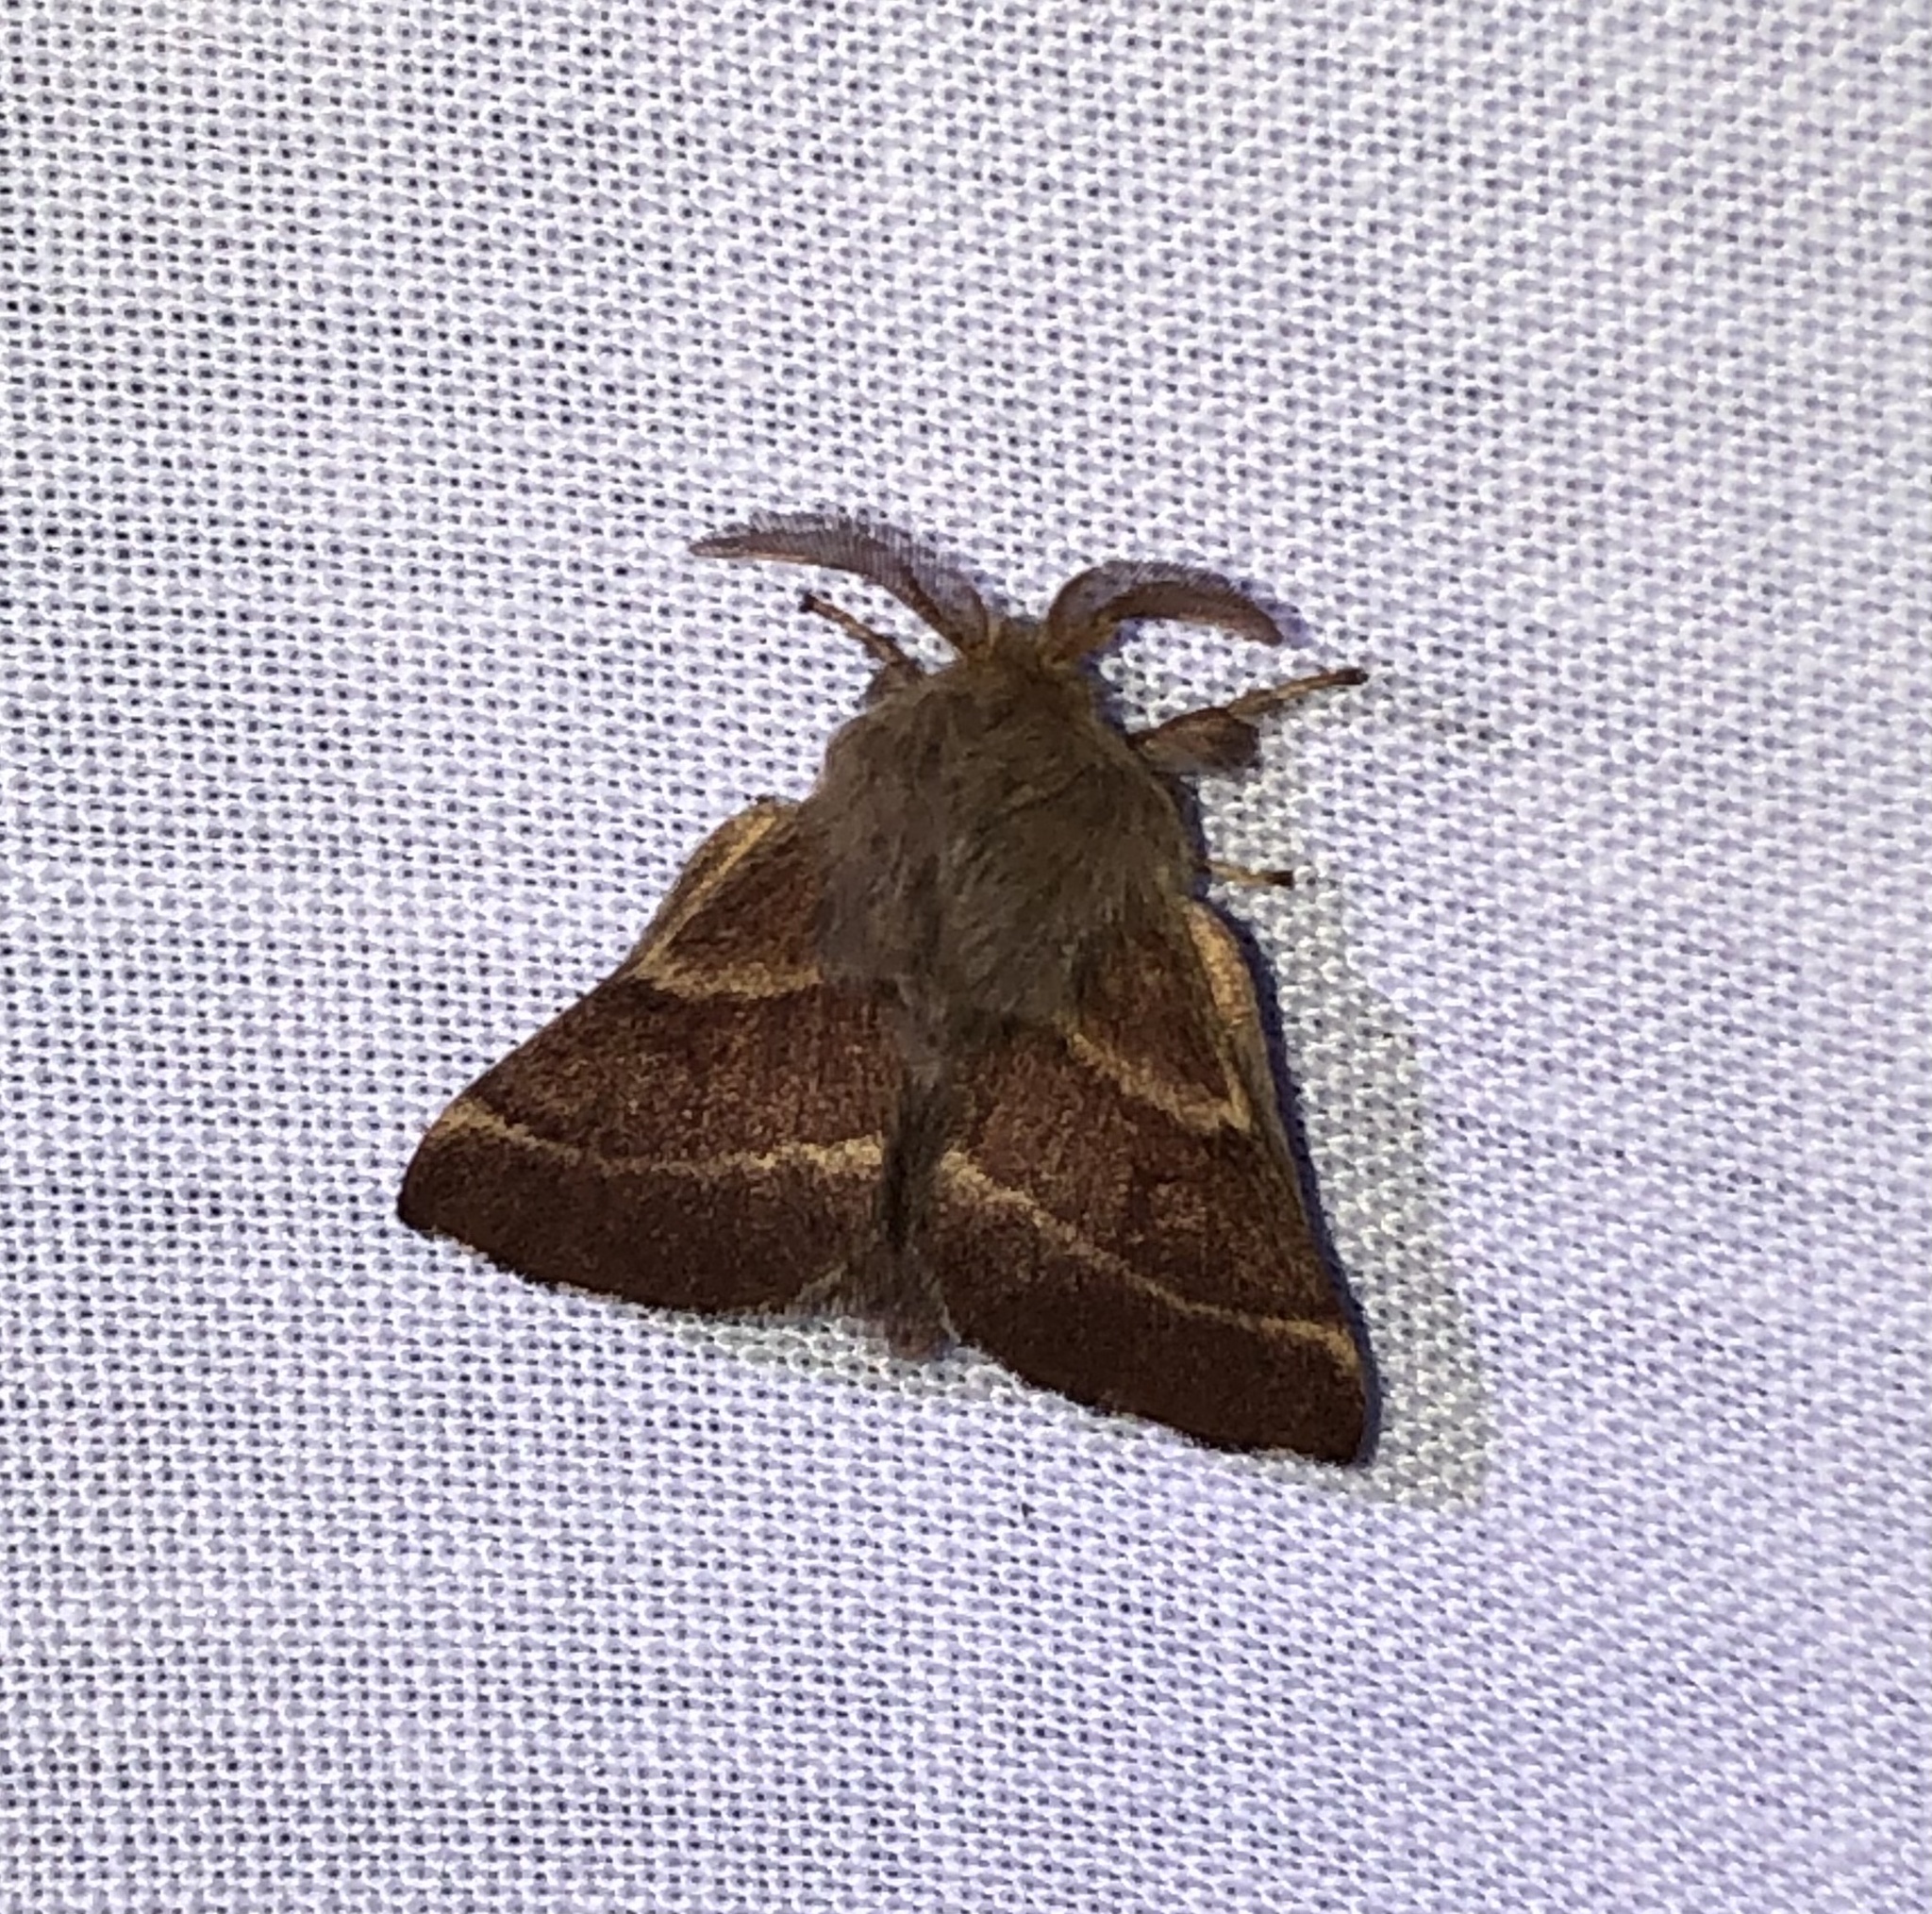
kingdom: Animalia
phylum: Arthropoda
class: Insecta
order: Lepidoptera
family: Lasiocampidae
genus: Malacosoma
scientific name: Malacosoma californica
